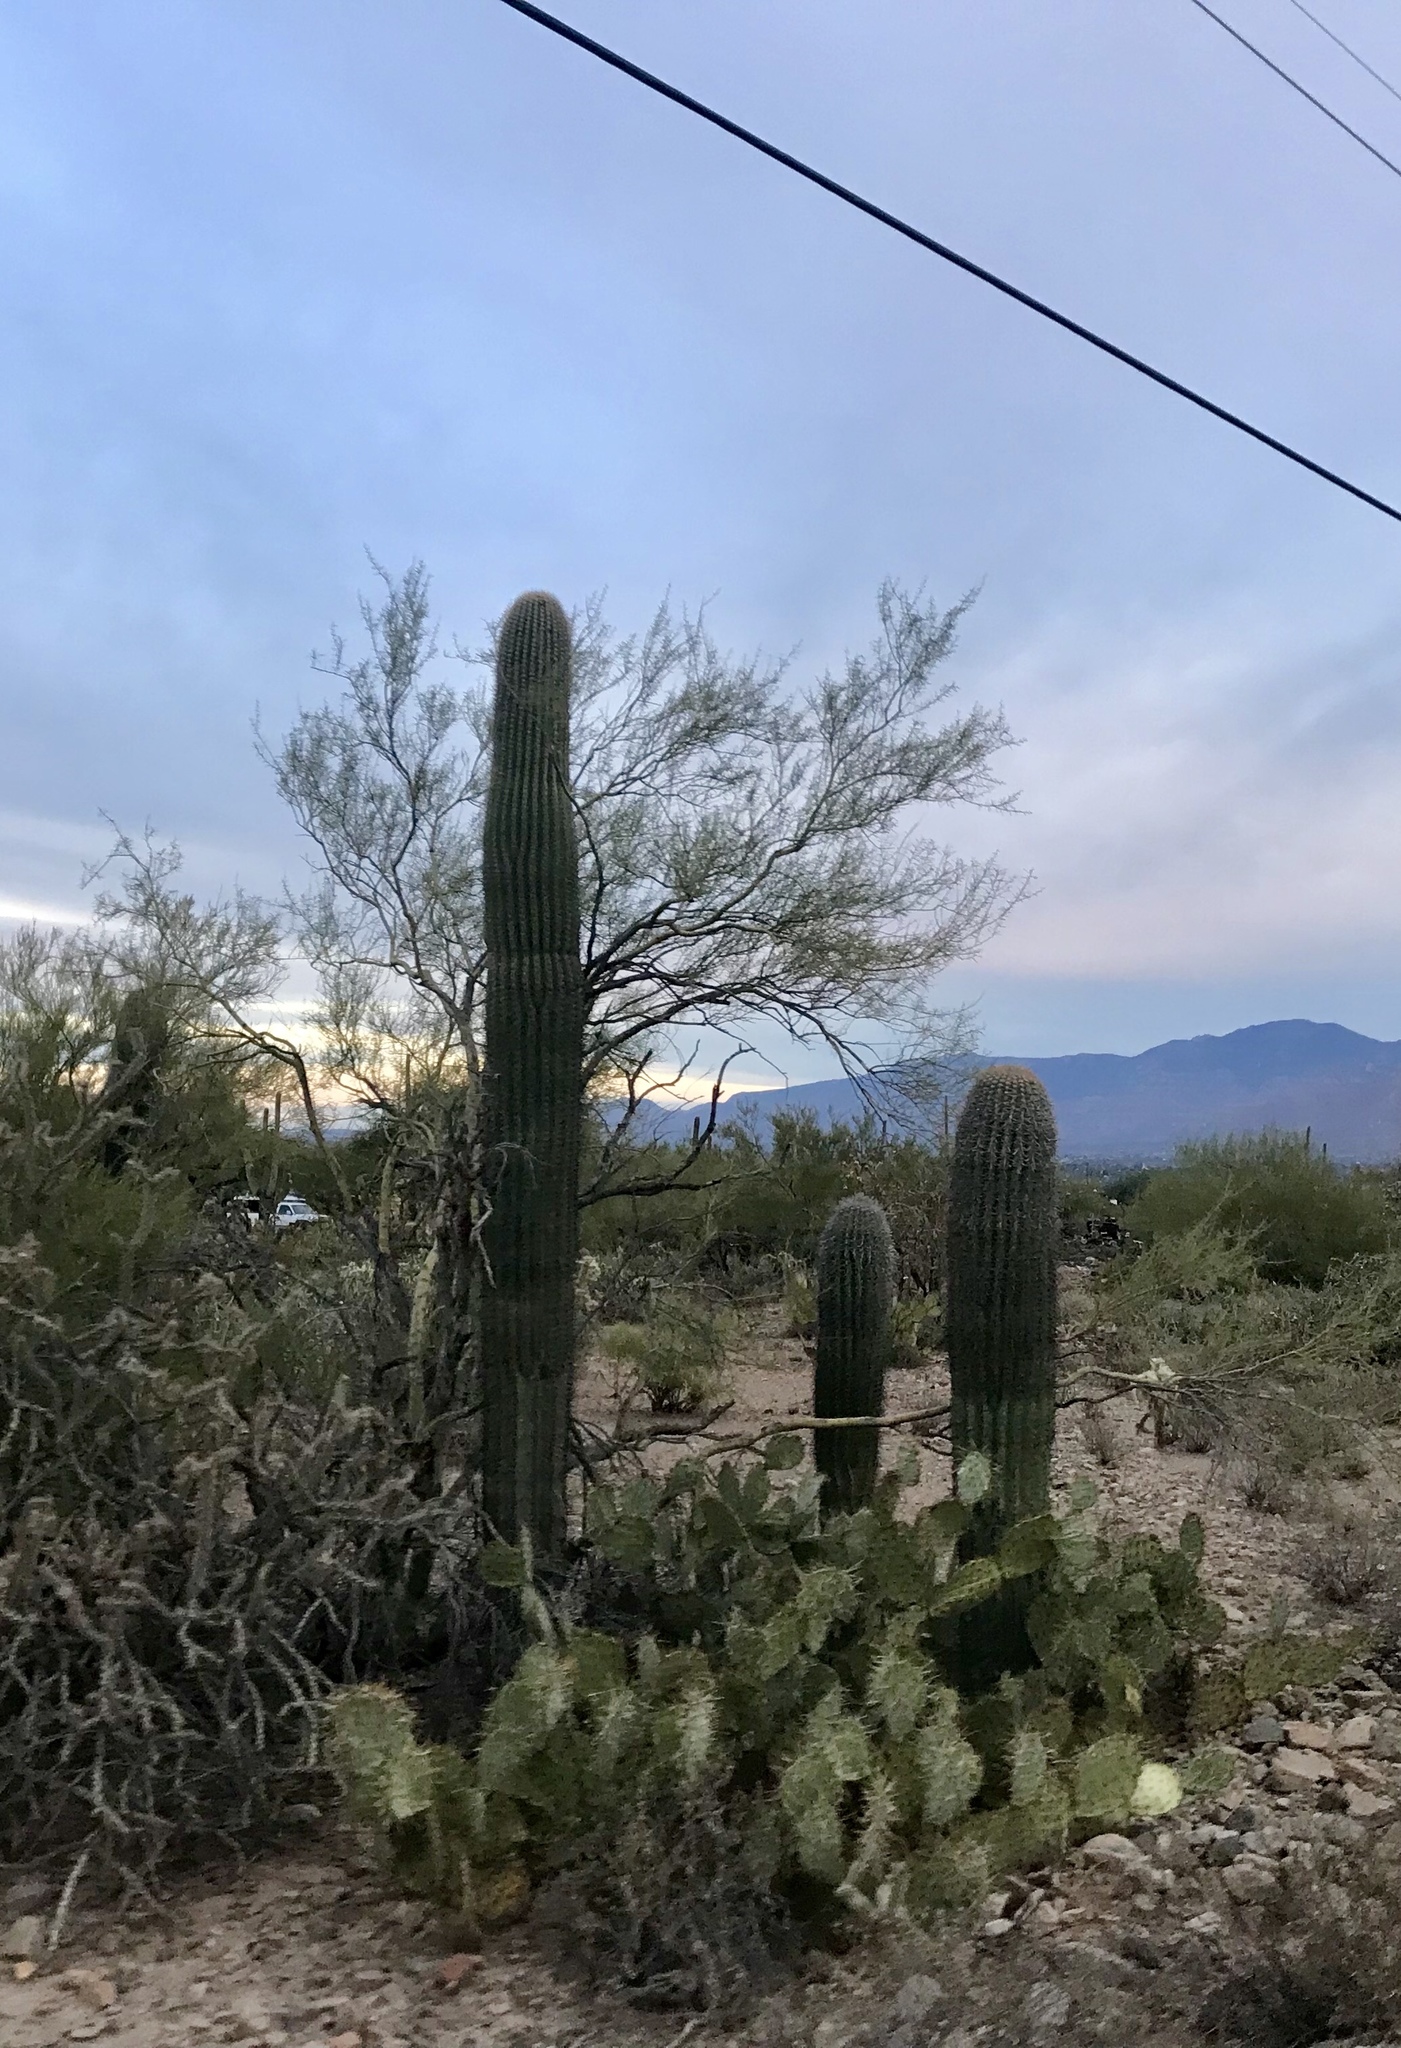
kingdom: Plantae
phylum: Tracheophyta
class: Magnoliopsida
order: Caryophyllales
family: Cactaceae
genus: Carnegiea
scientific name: Carnegiea gigantea
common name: Saguaro
